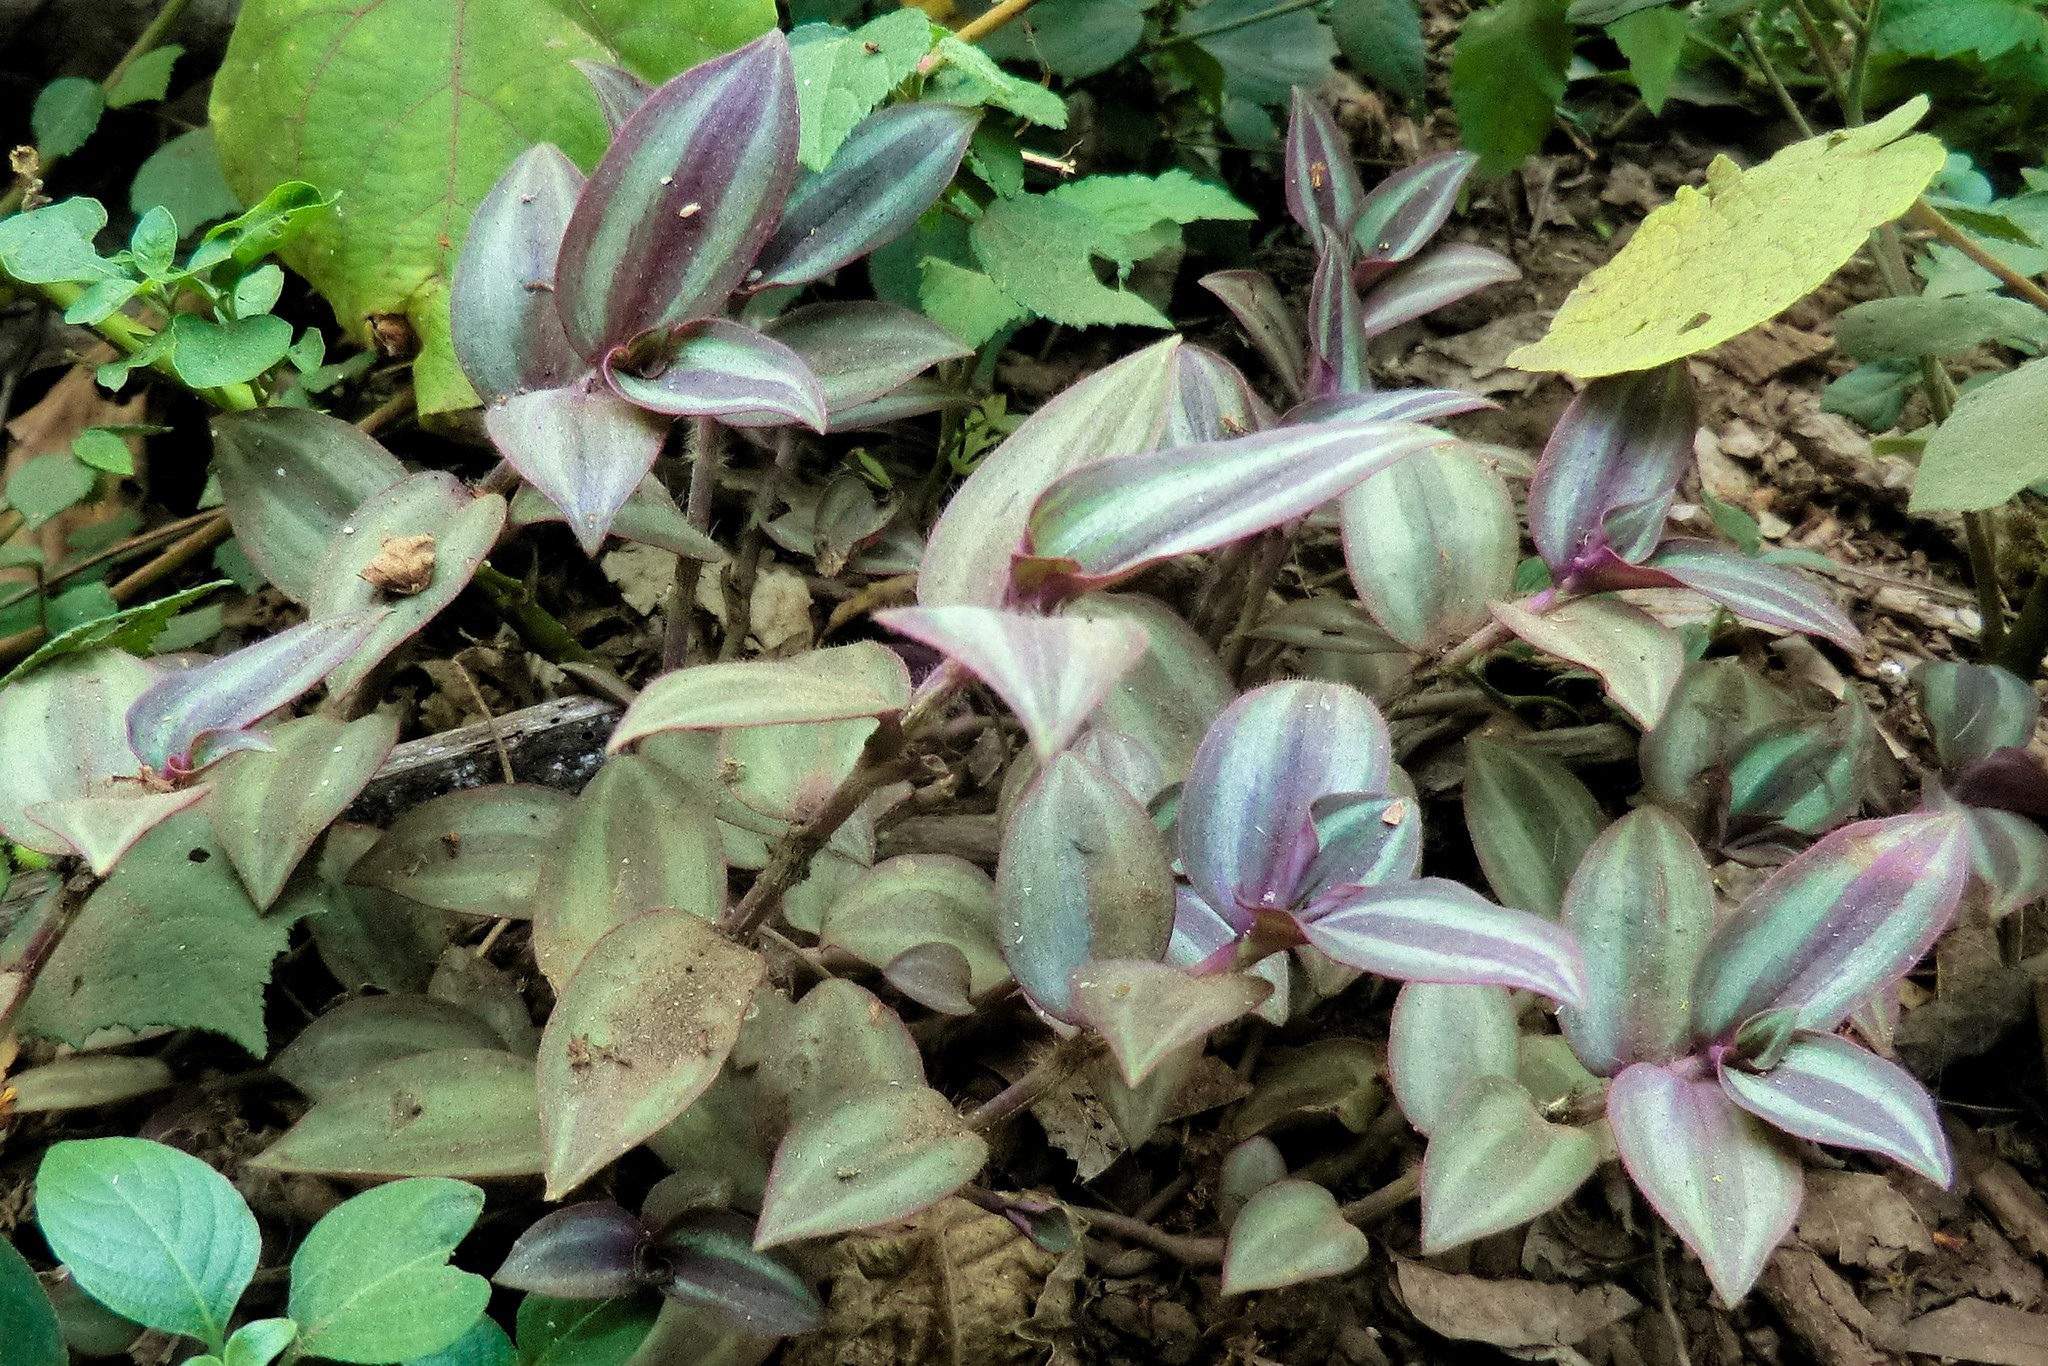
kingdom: Plantae
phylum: Tracheophyta
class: Liliopsida
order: Commelinales
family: Commelinaceae
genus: Tradescantia
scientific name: Tradescantia zebrina
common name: Inchplant
